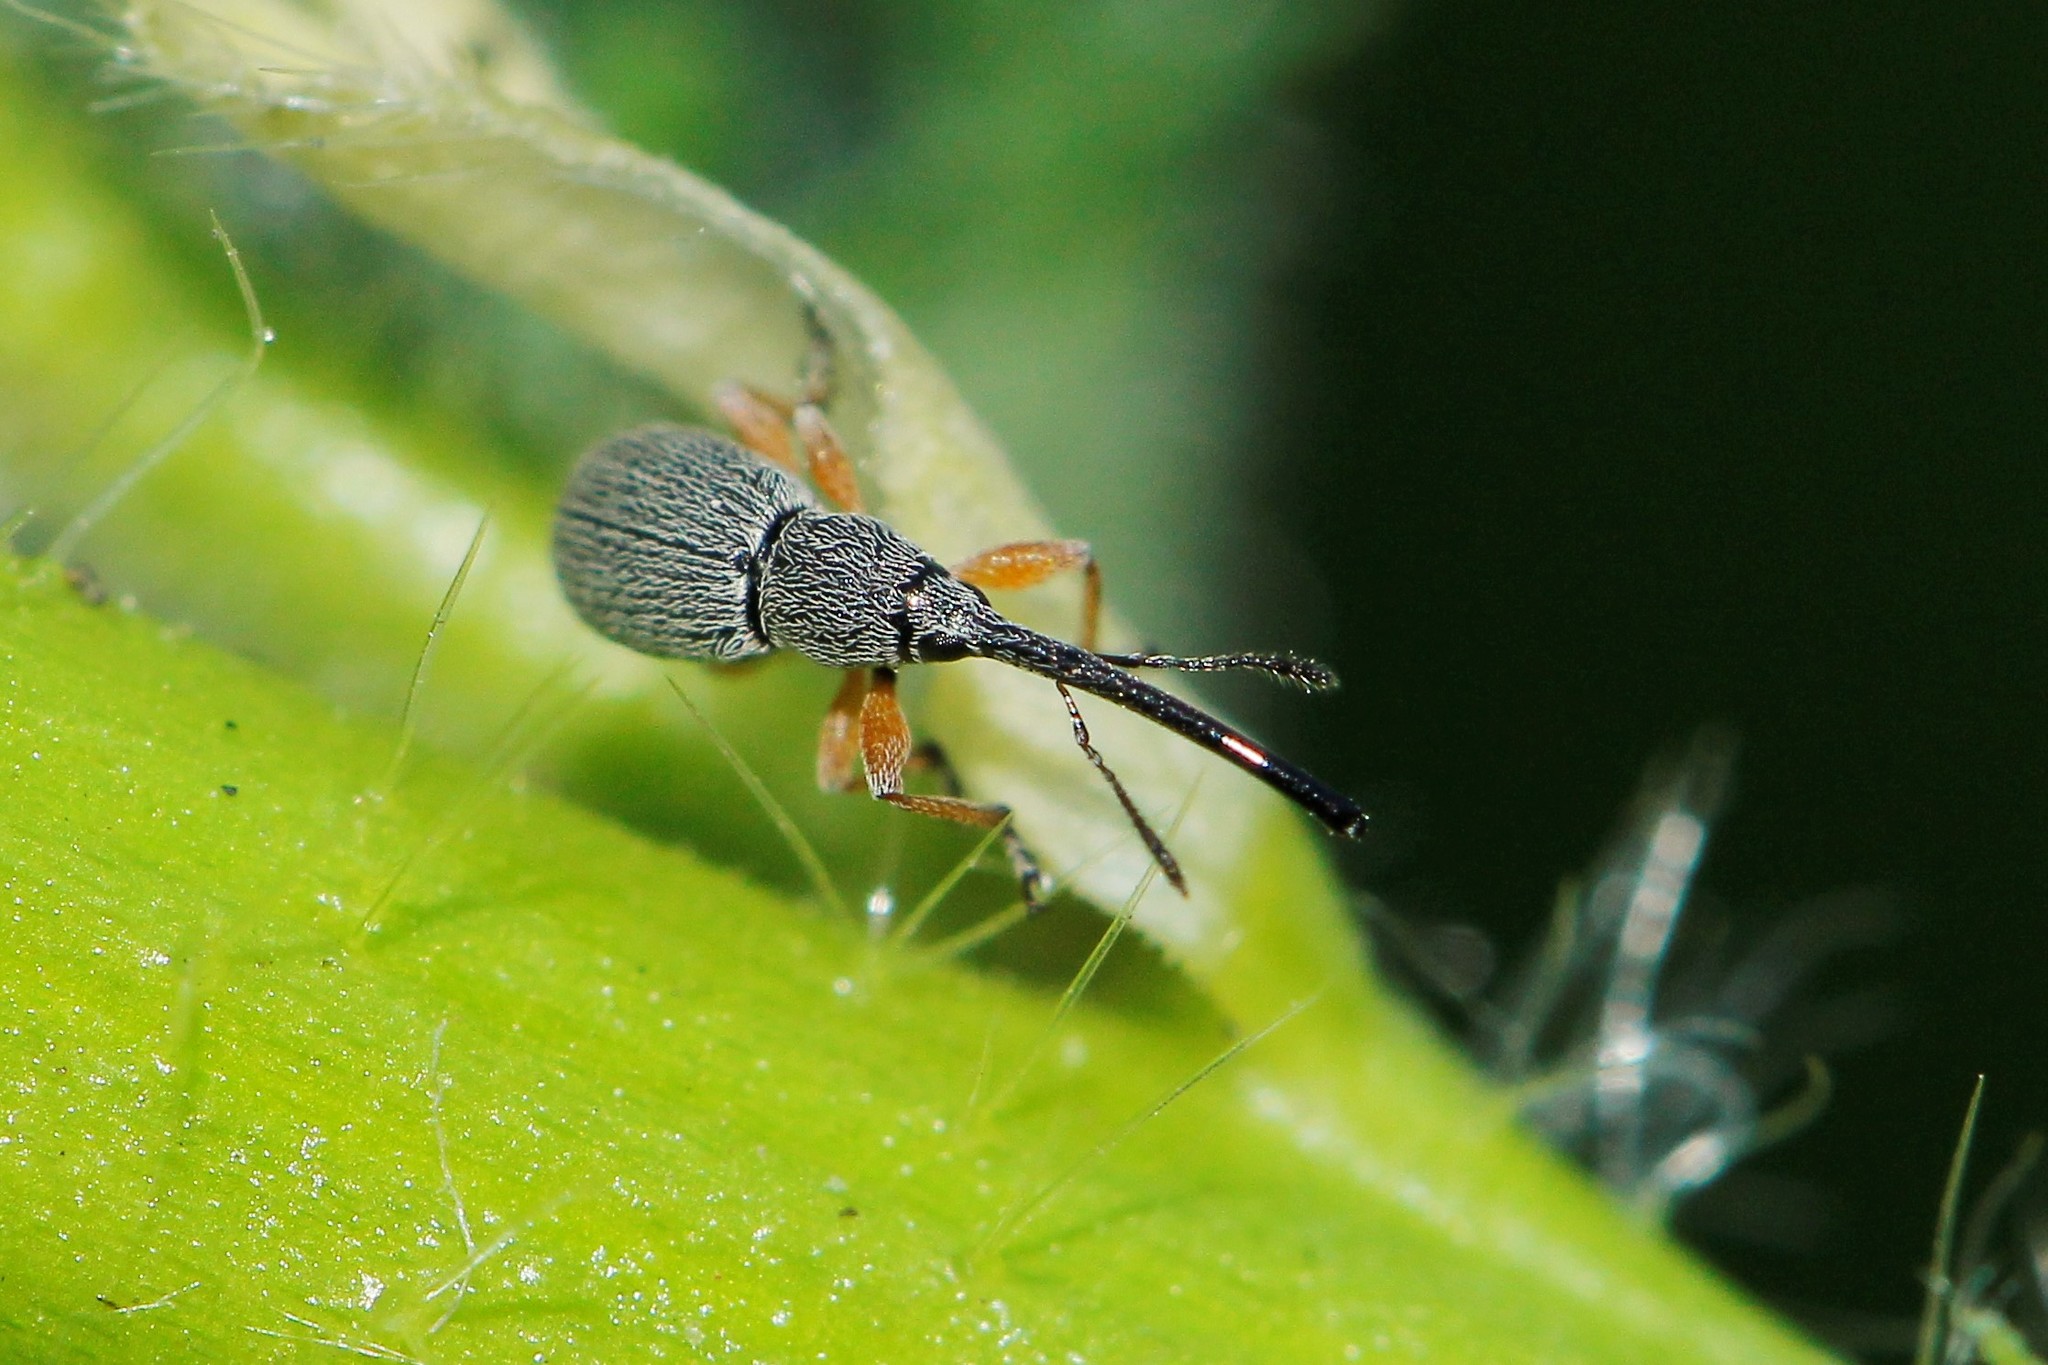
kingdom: Animalia
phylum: Arthropoda
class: Insecta
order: Coleoptera
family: Brentidae
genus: Rhopalapion
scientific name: Rhopalapion longirostre
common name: Hollyhock weevil
